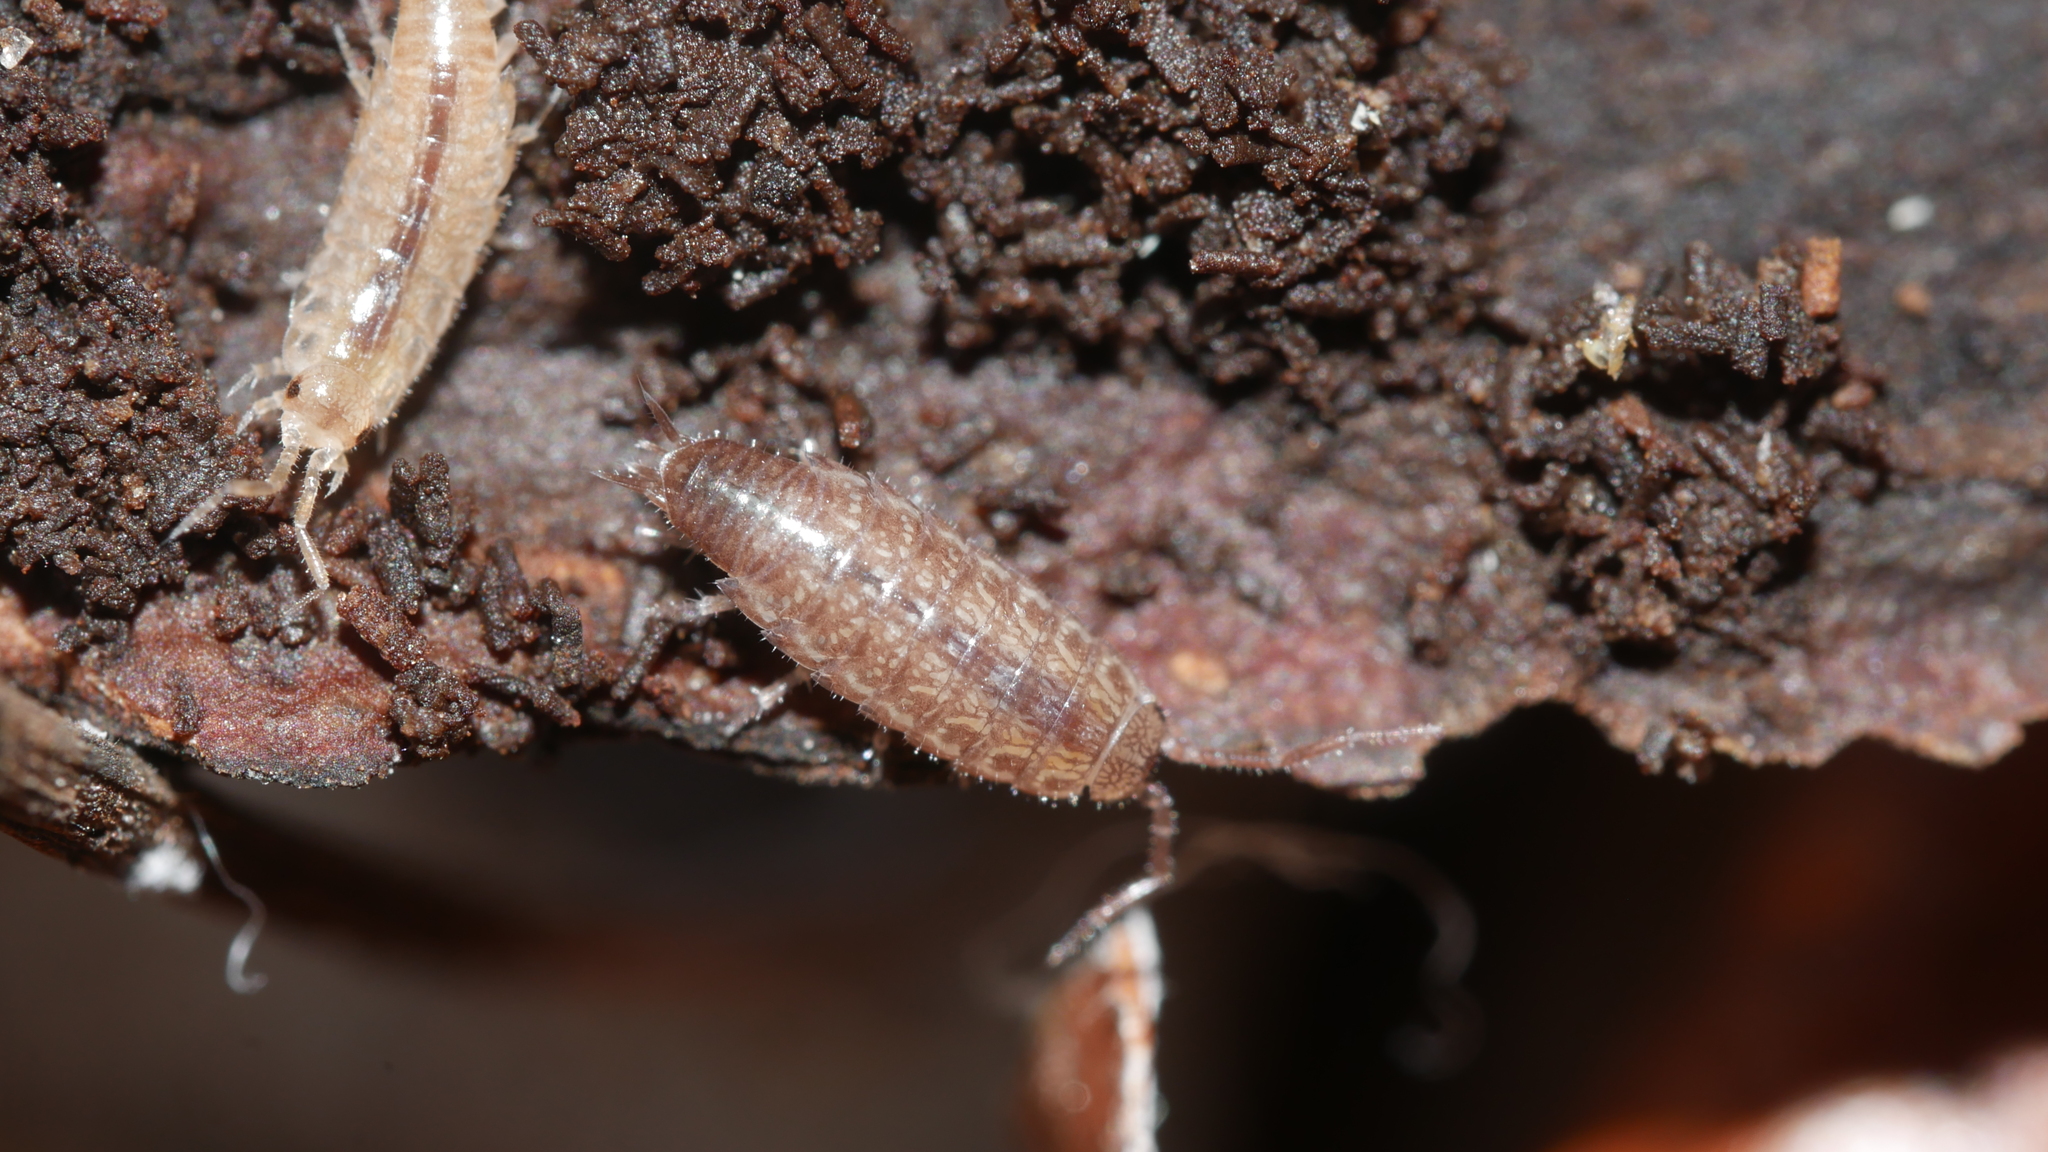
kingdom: Animalia
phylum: Arthropoda
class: Malacostraca
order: Isopoda
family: Philosciidae
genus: Chaetophiloscia
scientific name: Chaetophiloscia sicula
